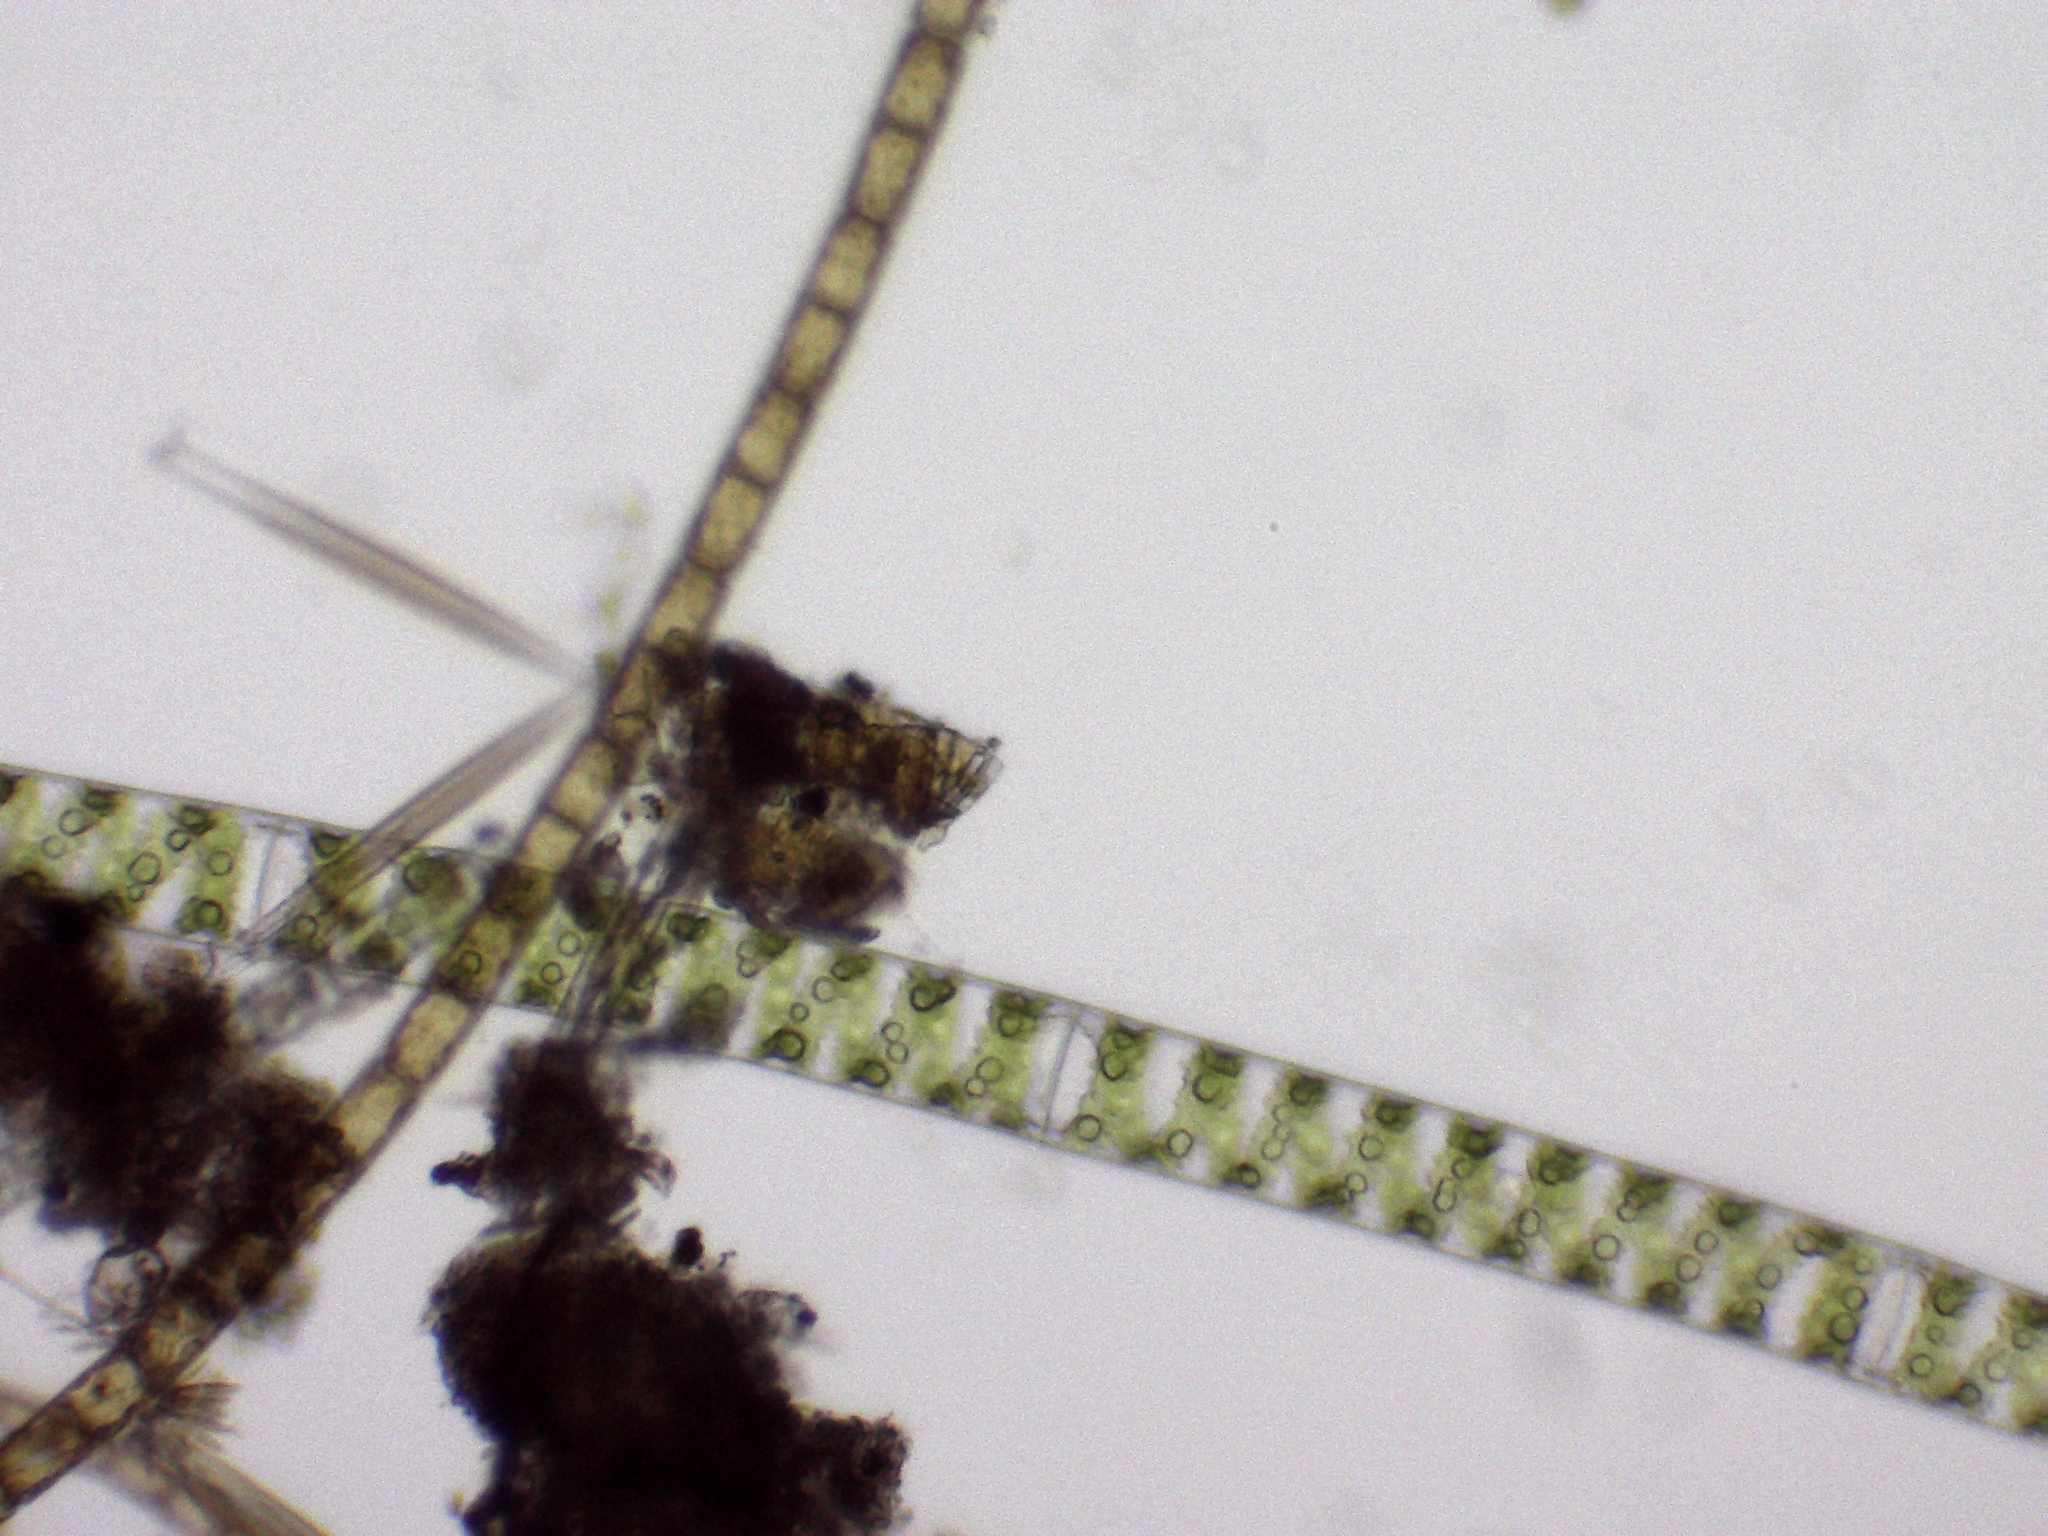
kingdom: Plantae
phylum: Charophyta
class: Zygnematophyceae
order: Zygnematales
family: Zygnemataceae
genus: Spirogyra
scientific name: Spirogyra
